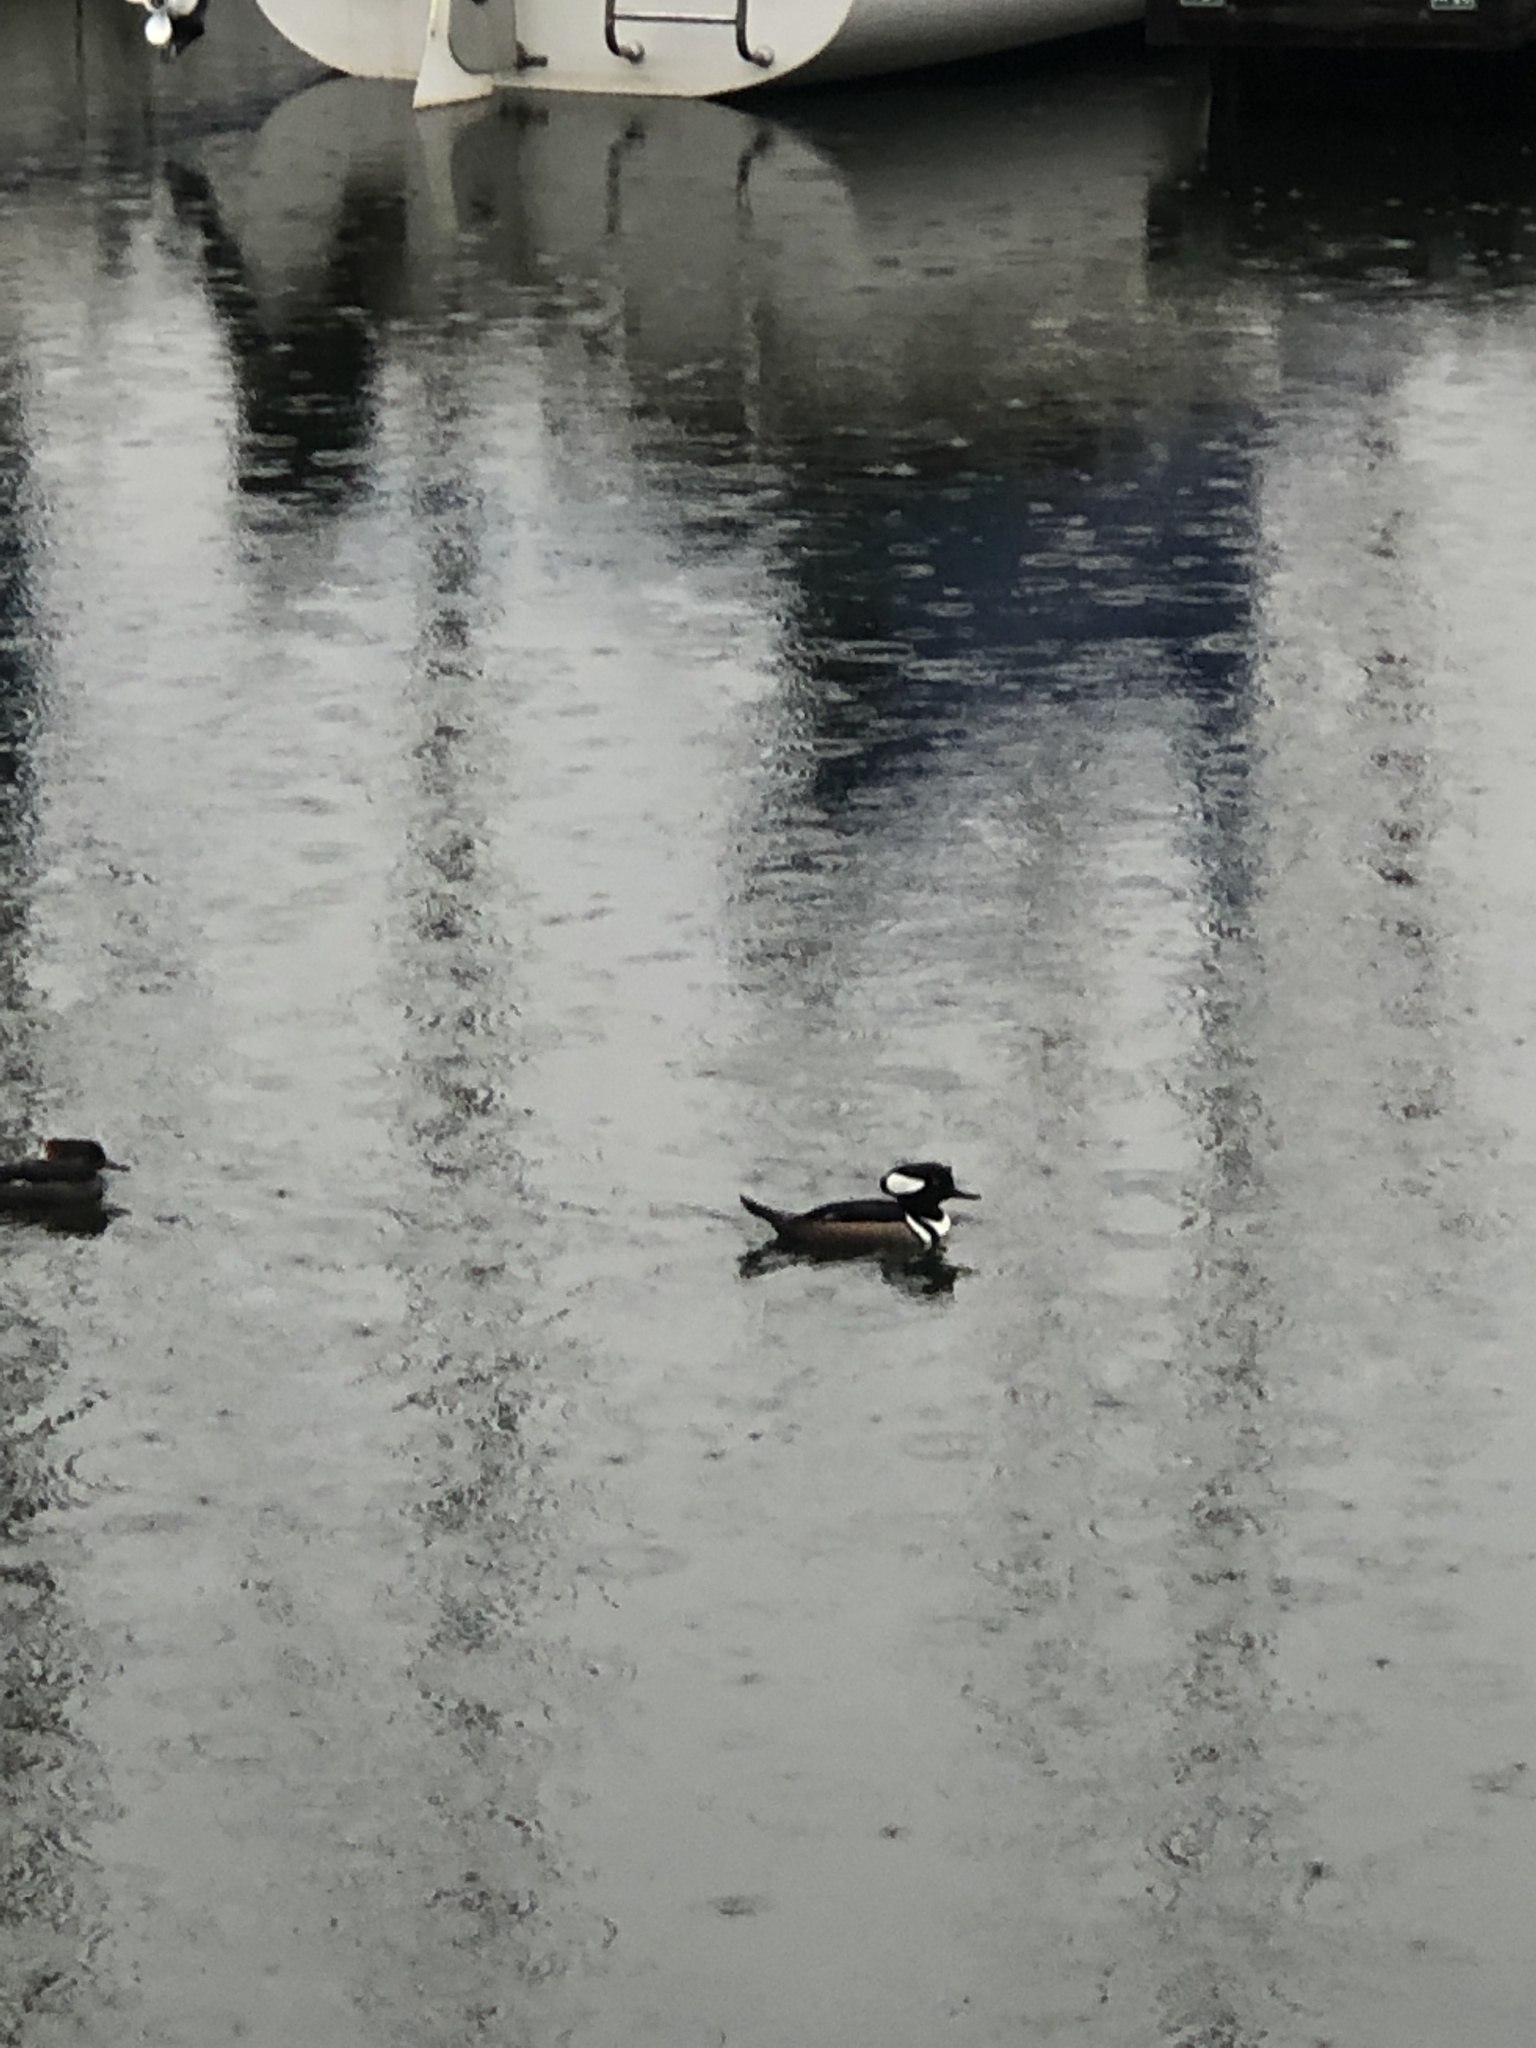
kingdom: Animalia
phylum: Chordata
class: Aves
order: Anseriformes
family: Anatidae
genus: Lophodytes
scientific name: Lophodytes cucullatus
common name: Hooded merganser
